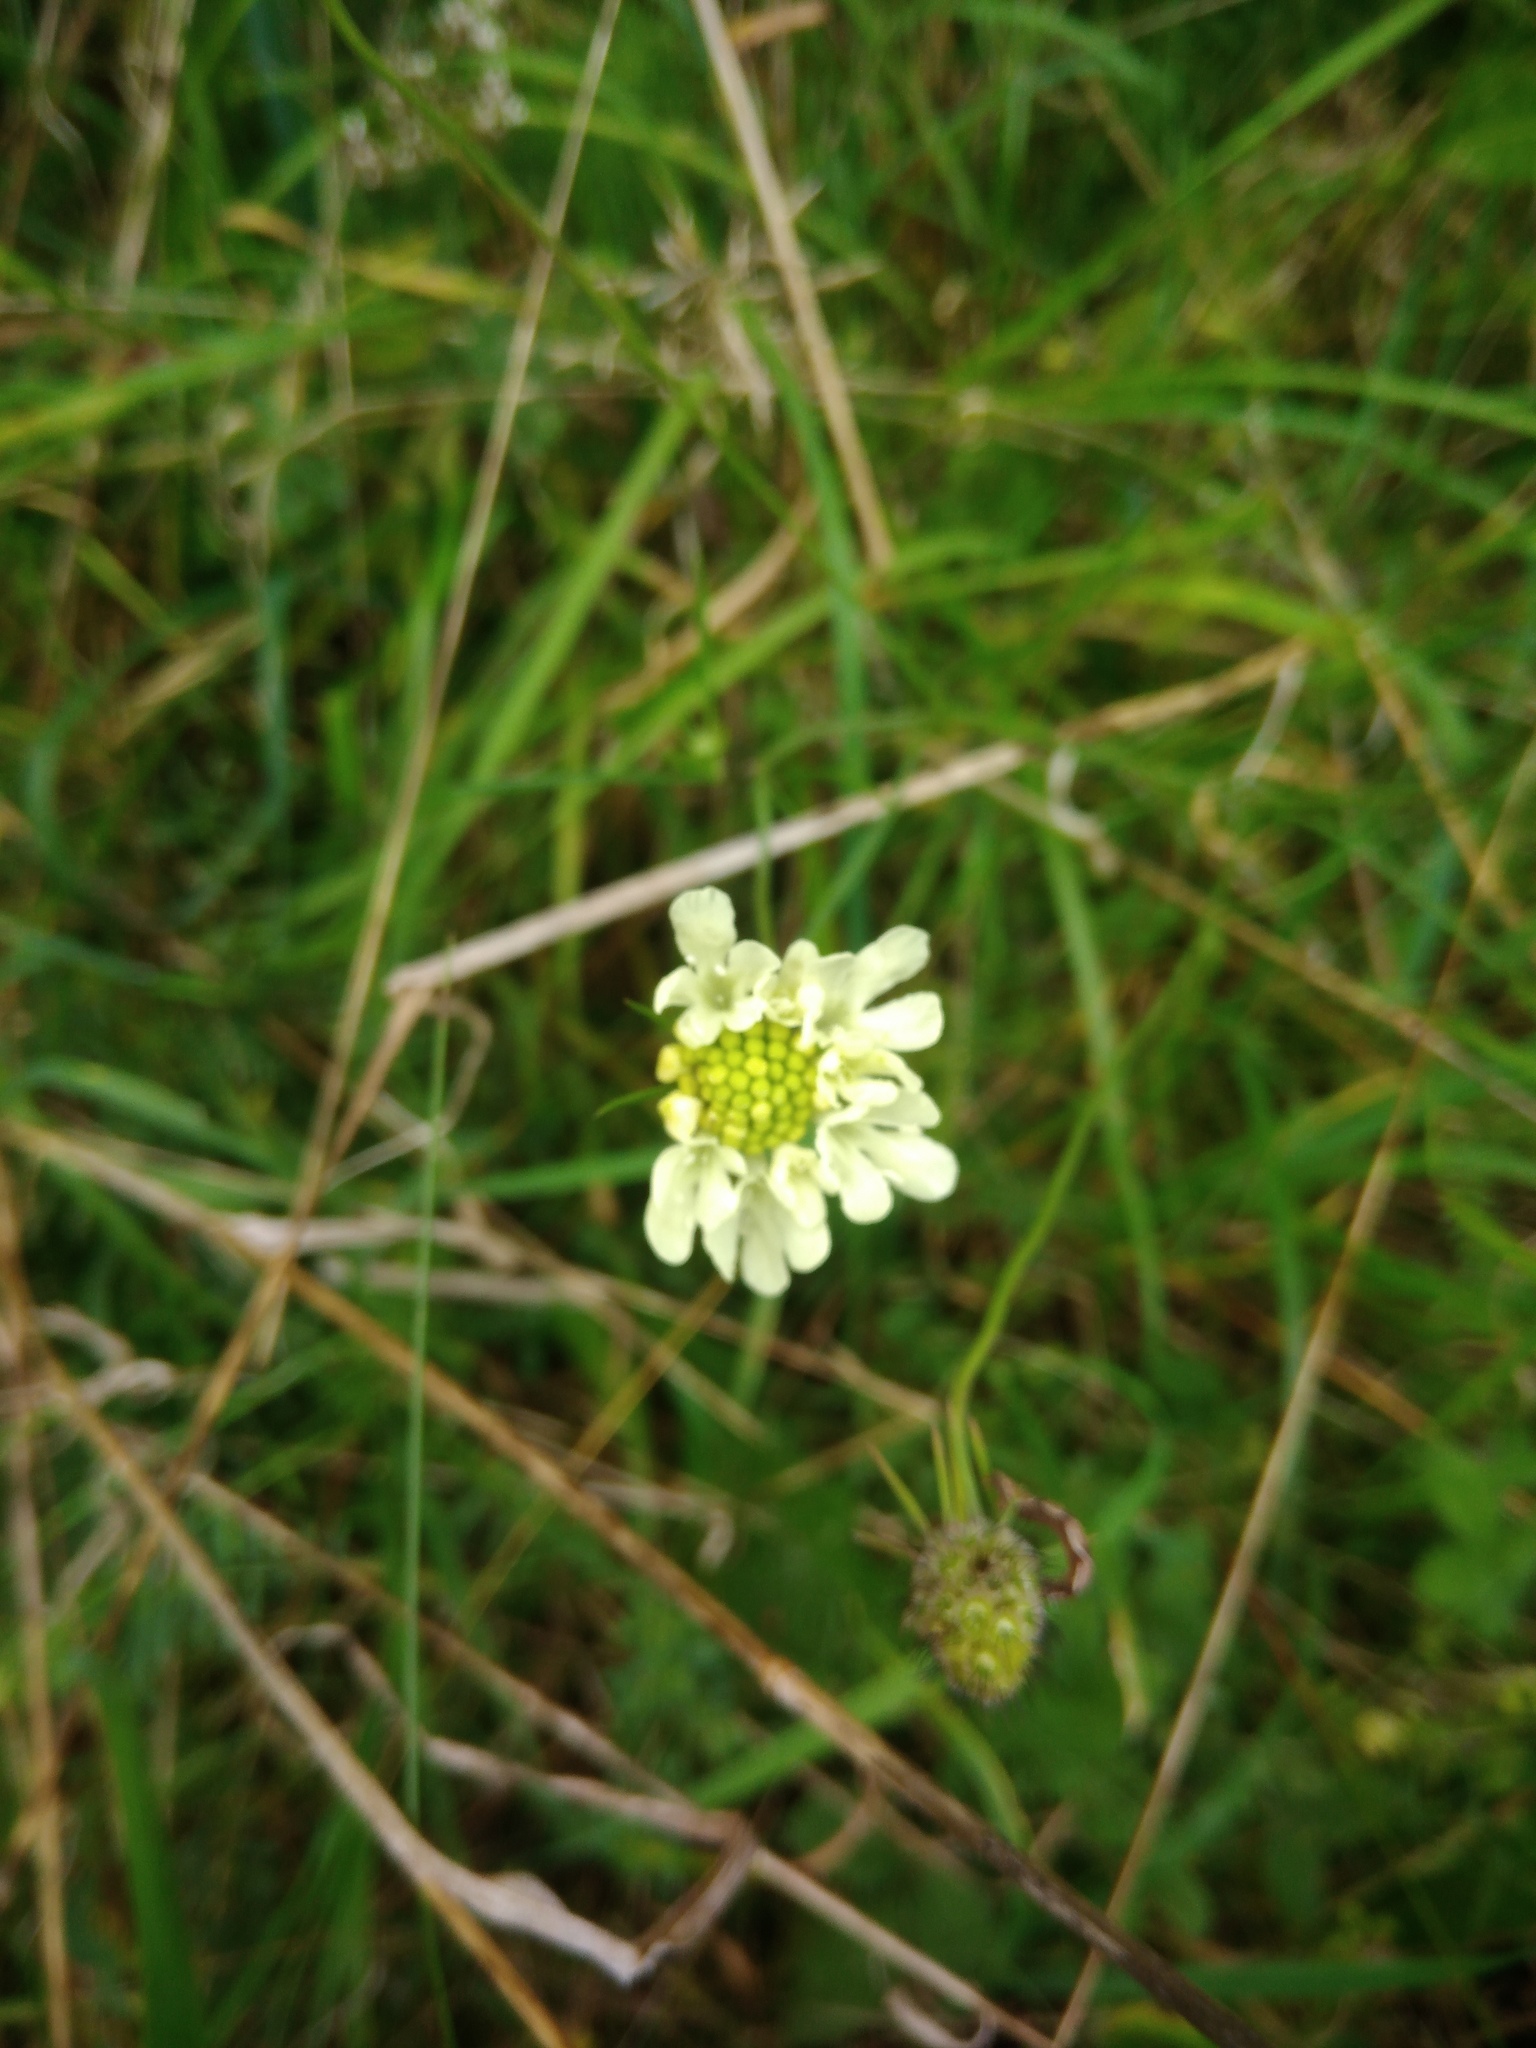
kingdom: Plantae
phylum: Tracheophyta
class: Magnoliopsida
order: Dipsacales
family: Caprifoliaceae
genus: Scabiosa
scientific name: Scabiosa ochroleuca
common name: Cream pincushions
